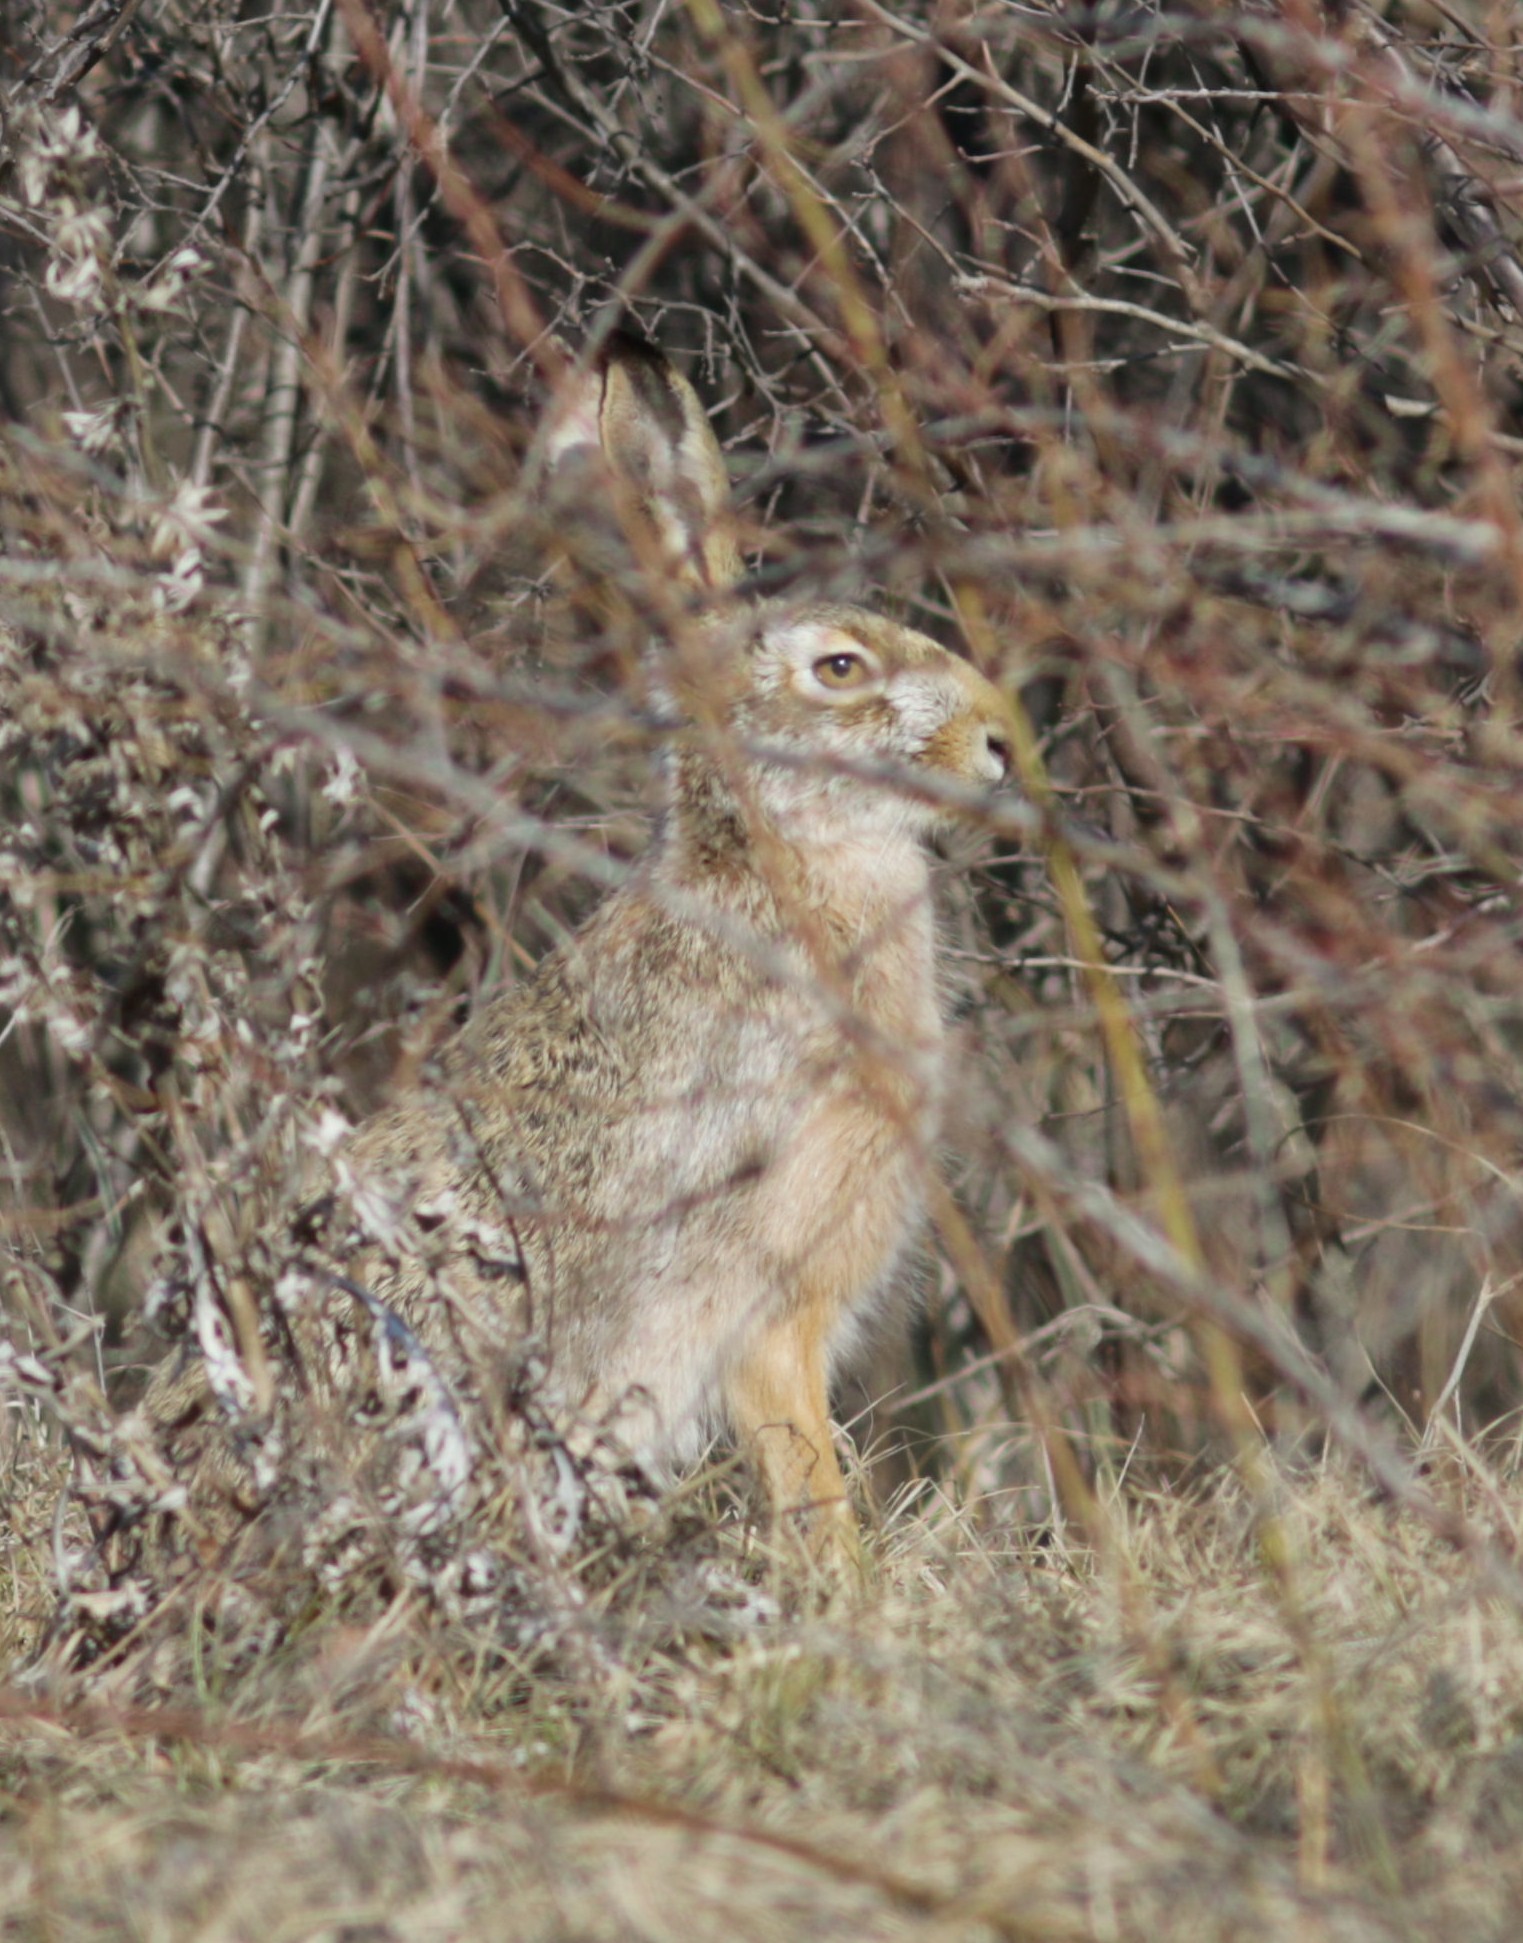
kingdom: Animalia
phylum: Chordata
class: Mammalia
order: Lagomorpha
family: Leporidae
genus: Lepus
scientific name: Lepus europaeus
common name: European hare
